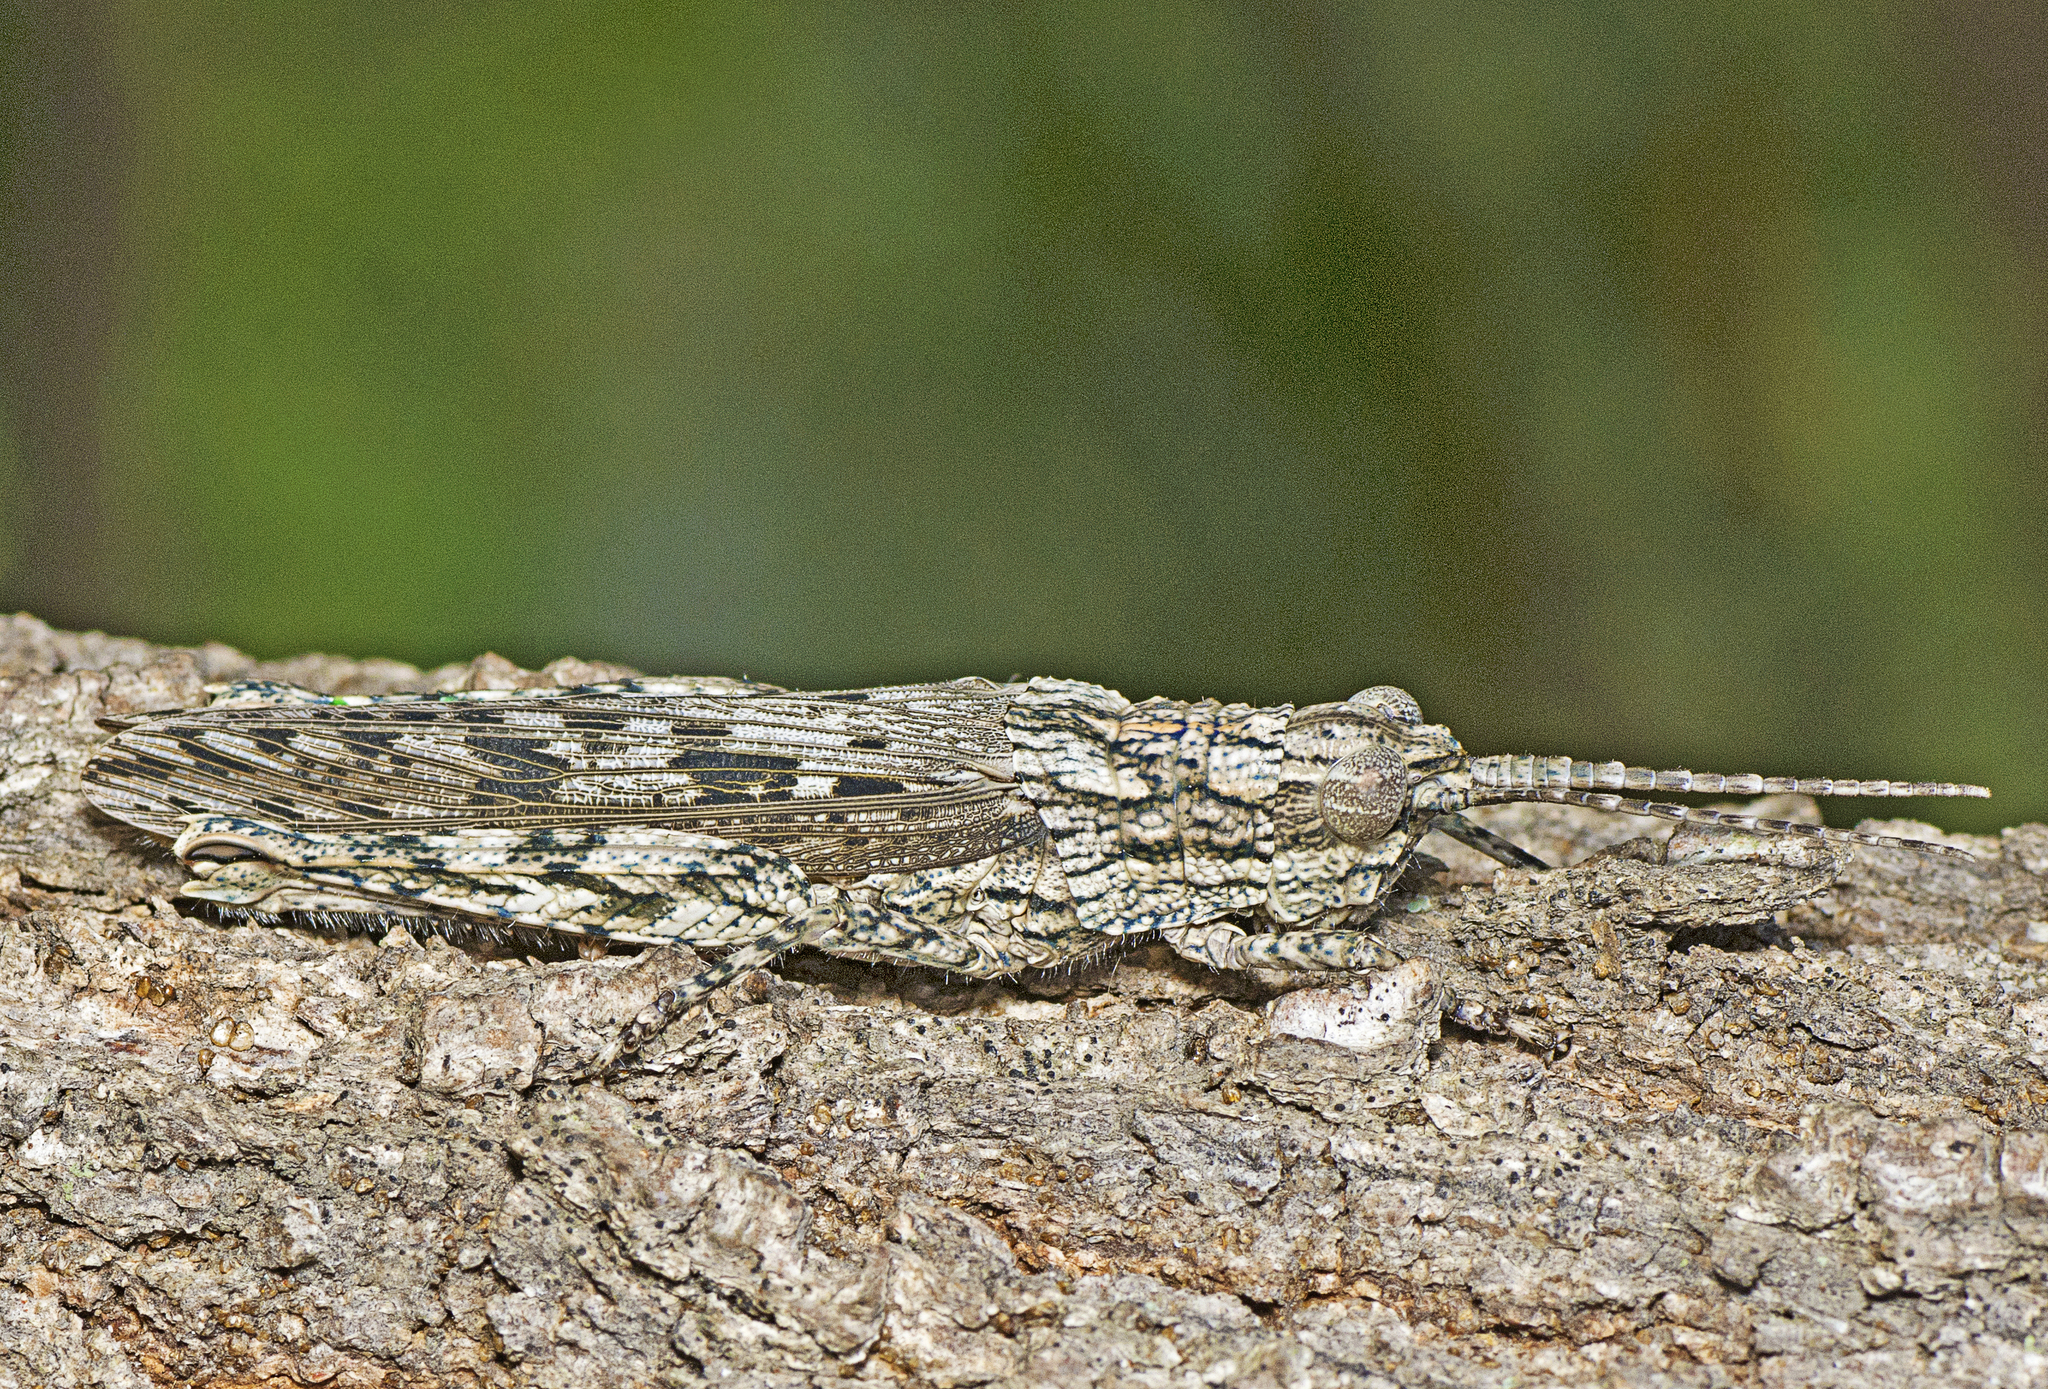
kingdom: Animalia
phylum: Arthropoda
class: Insecta
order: Orthoptera
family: Acrididae
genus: Coryphistes
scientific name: Coryphistes ruricola
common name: Bark-mimicking grasshopper
